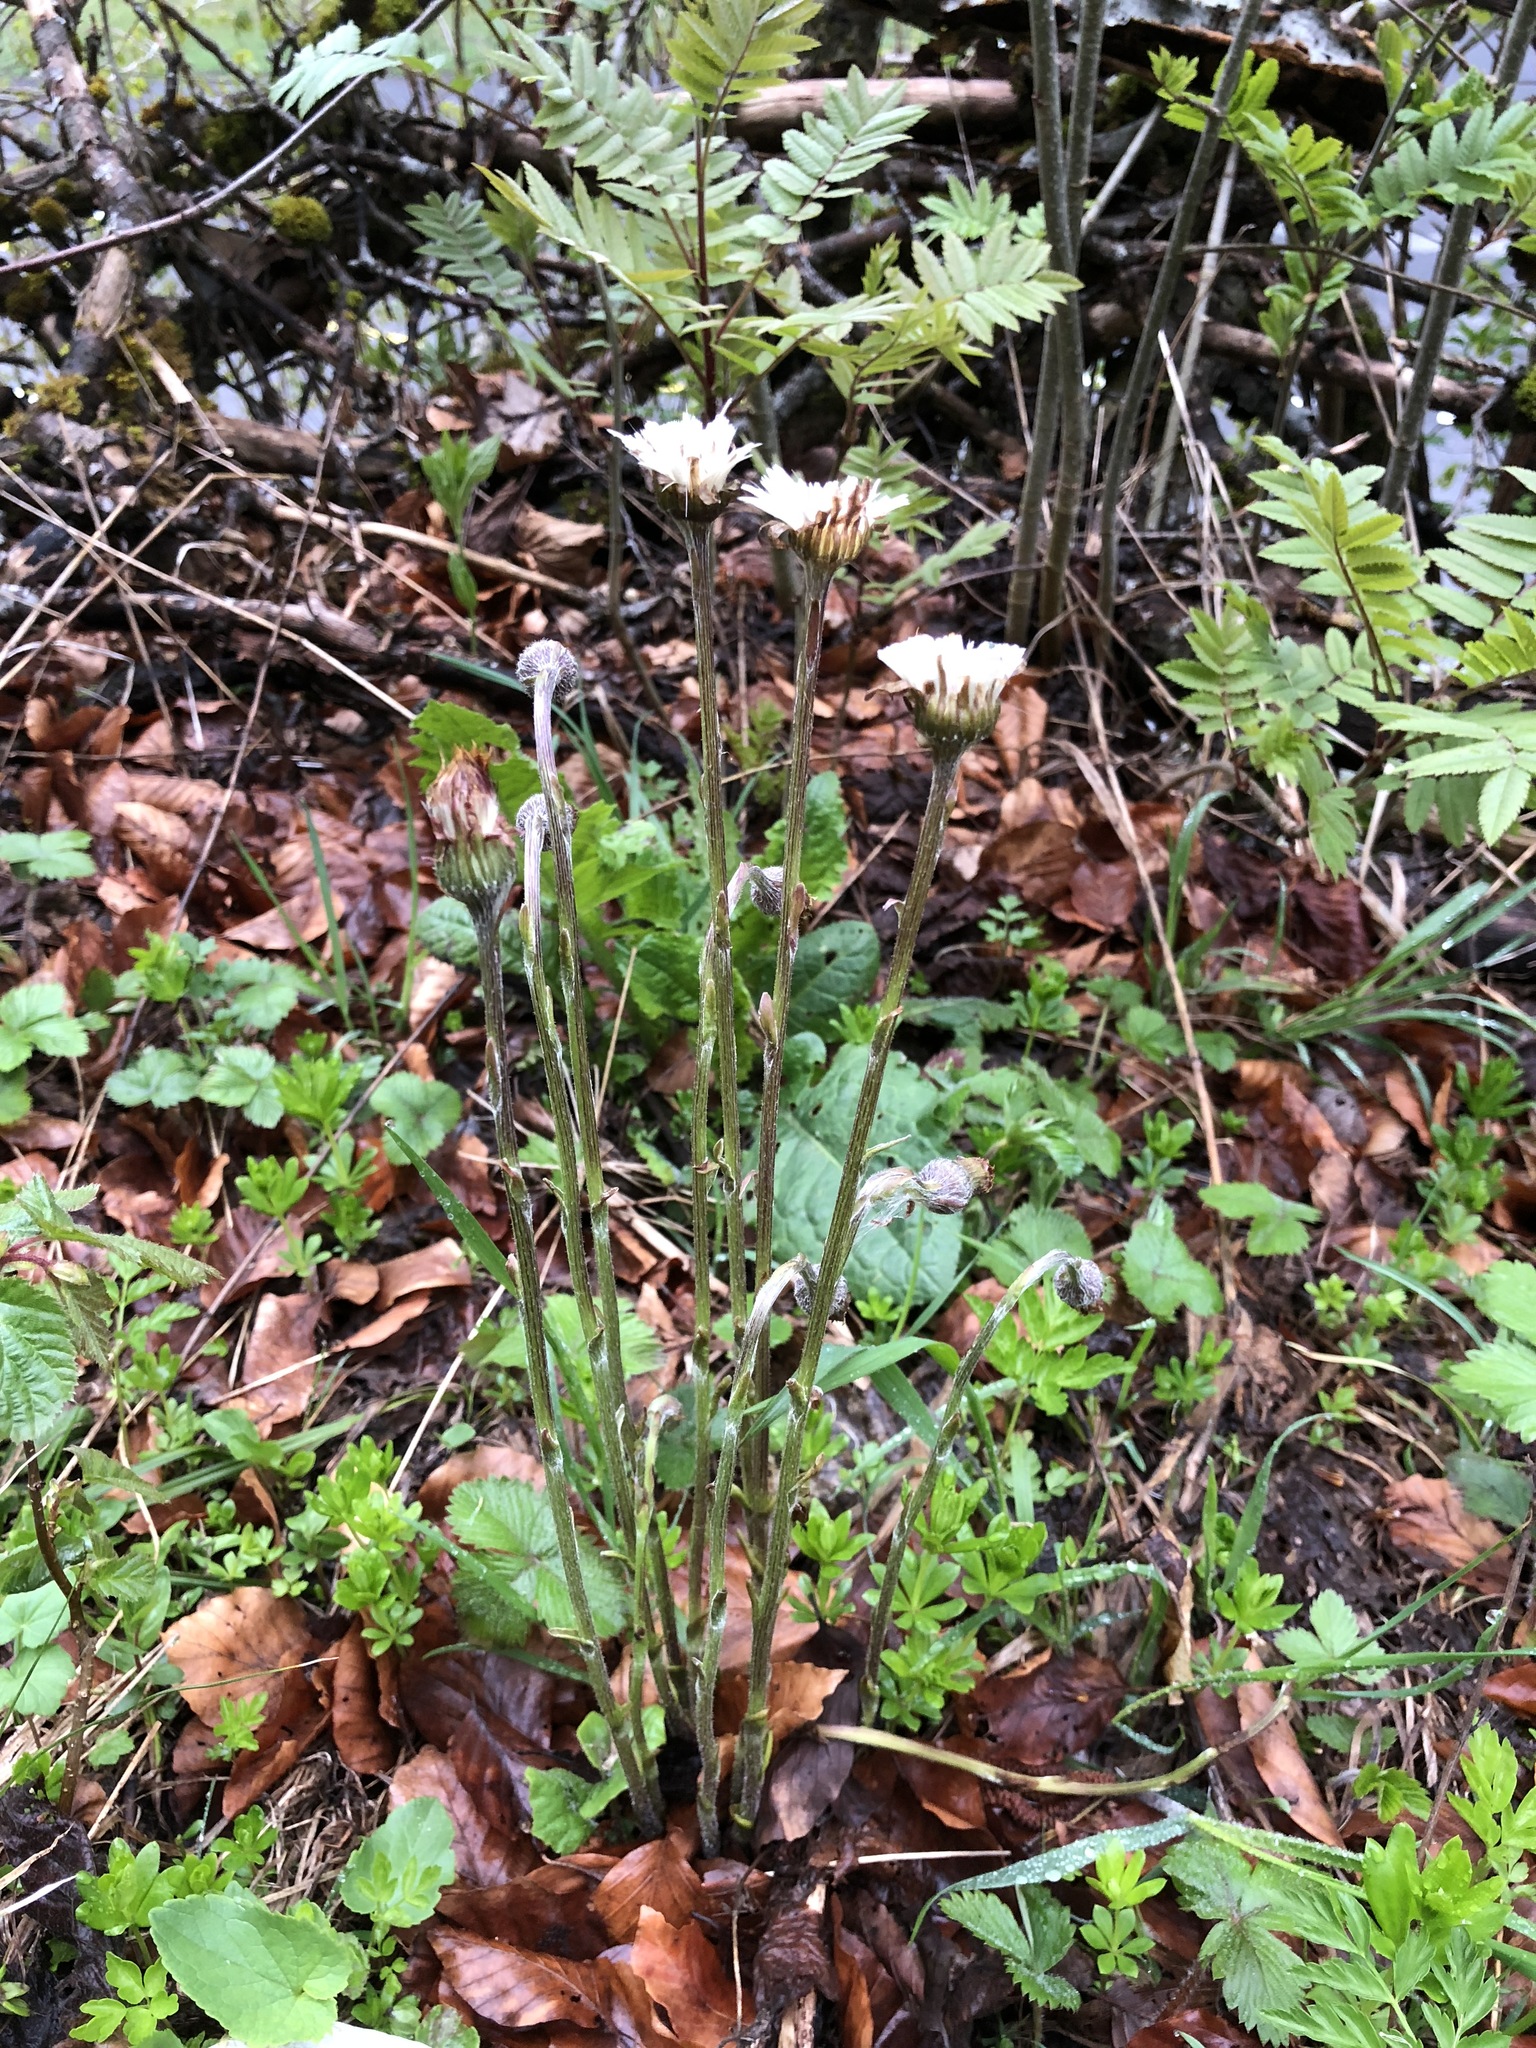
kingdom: Plantae
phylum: Tracheophyta
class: Magnoliopsida
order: Asterales
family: Asteraceae
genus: Tussilago
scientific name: Tussilago farfara
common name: Coltsfoot
